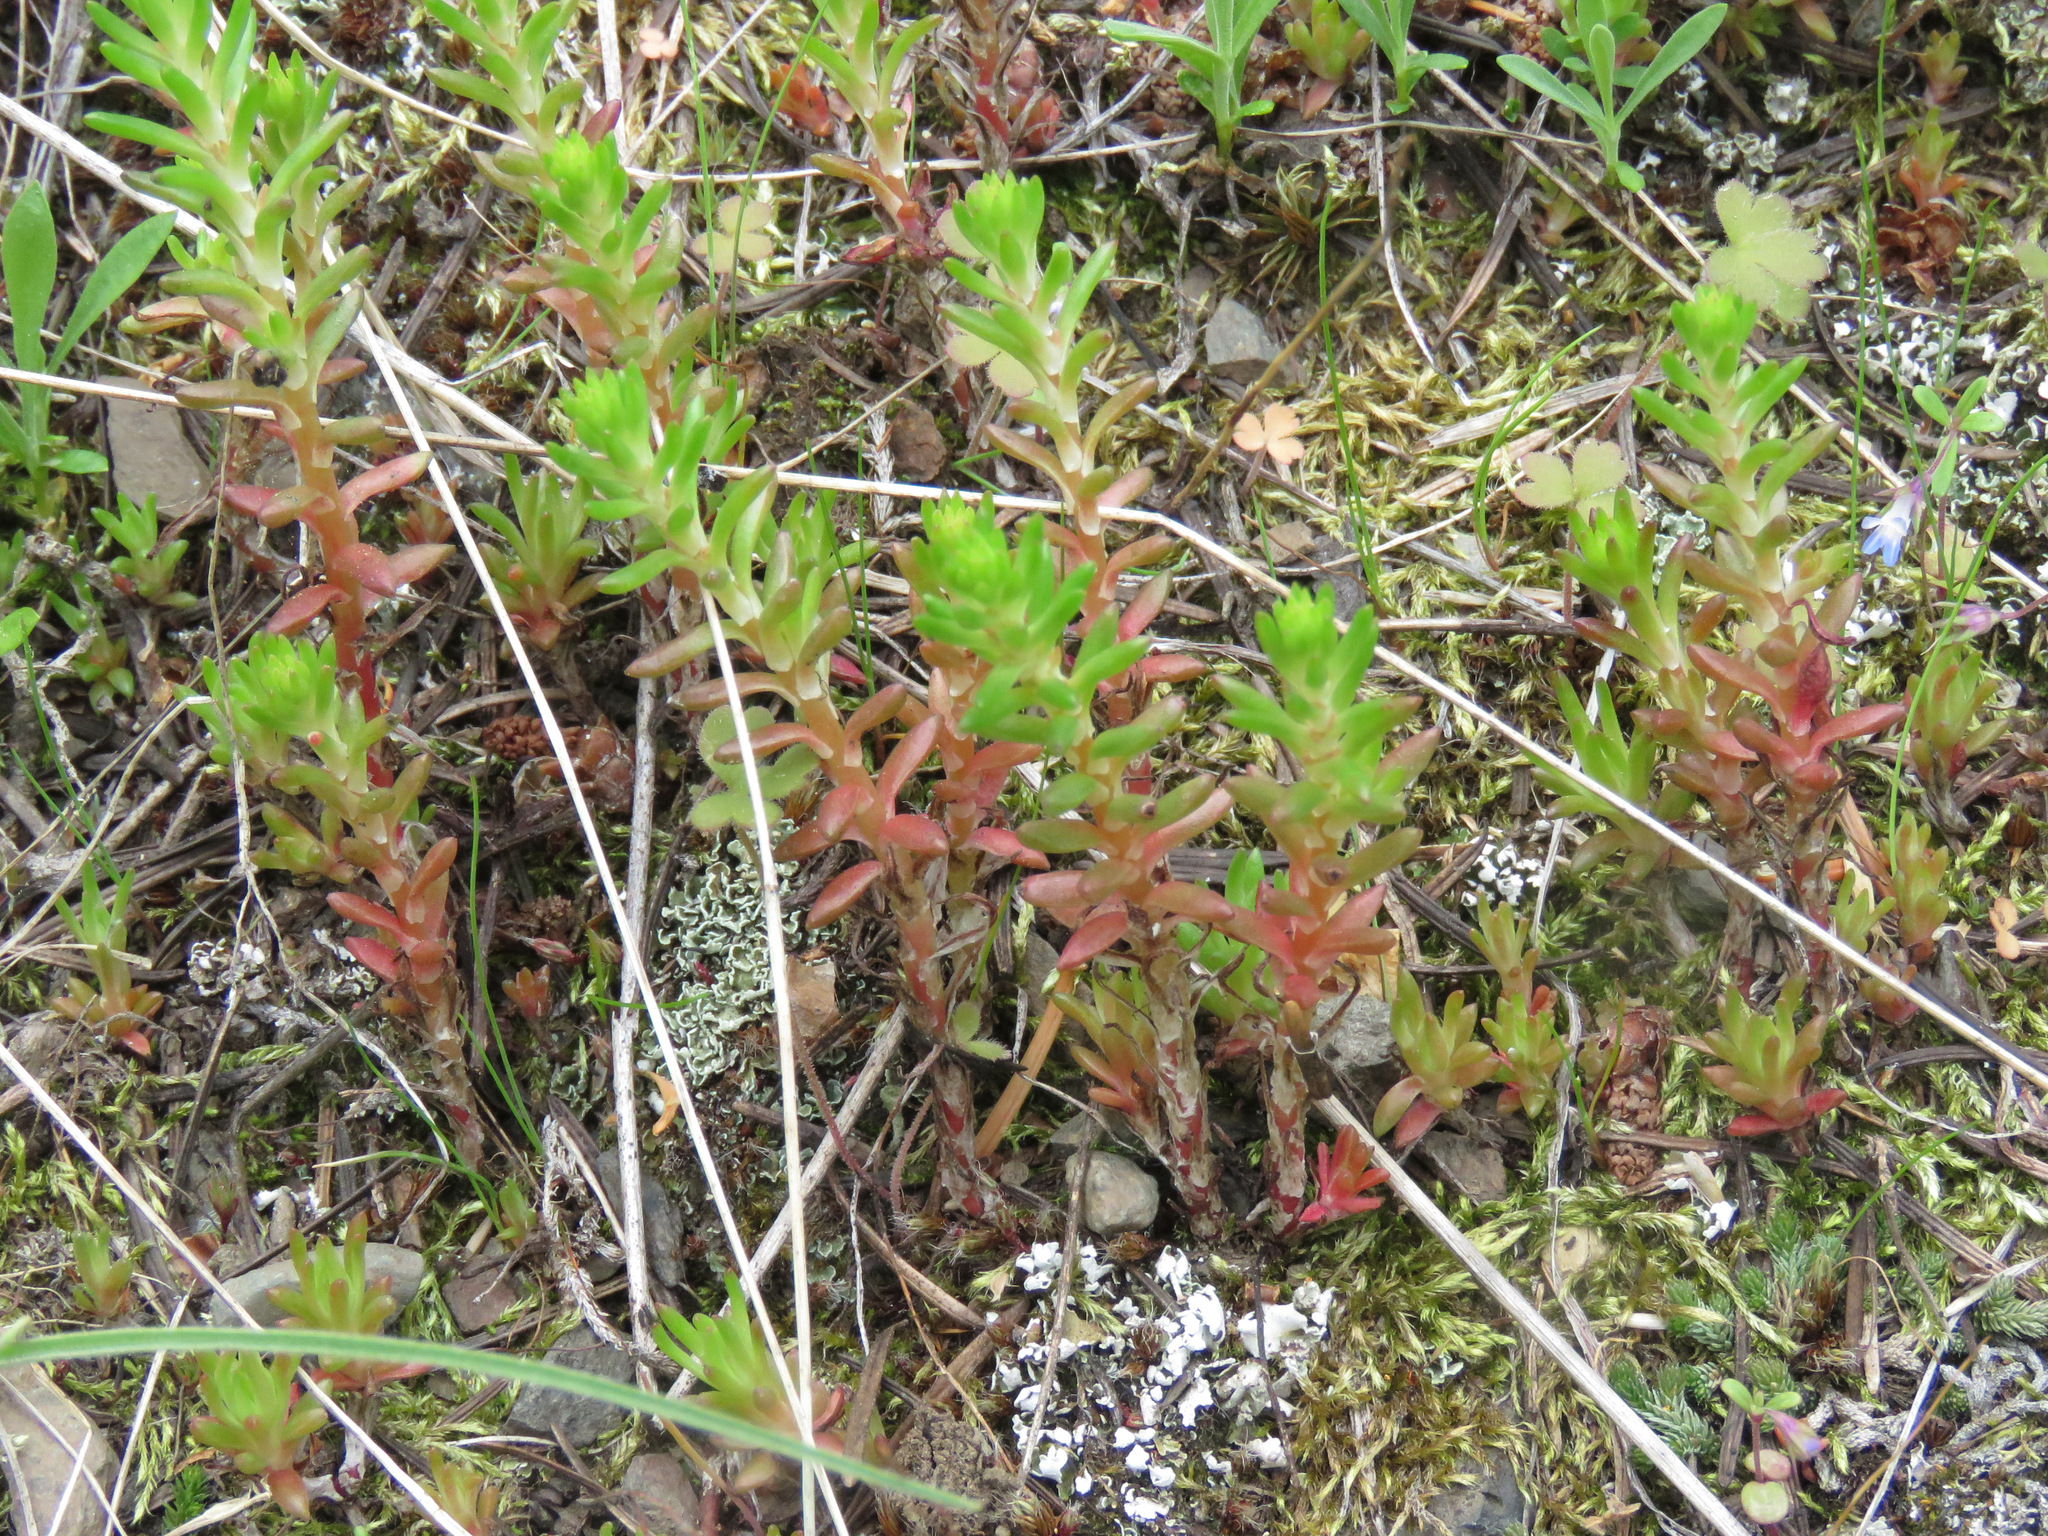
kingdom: Plantae
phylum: Tracheophyta
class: Magnoliopsida
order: Saxifragales
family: Crassulaceae
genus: Sedum
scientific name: Sedum lanceolatum
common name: Common stonecrop
